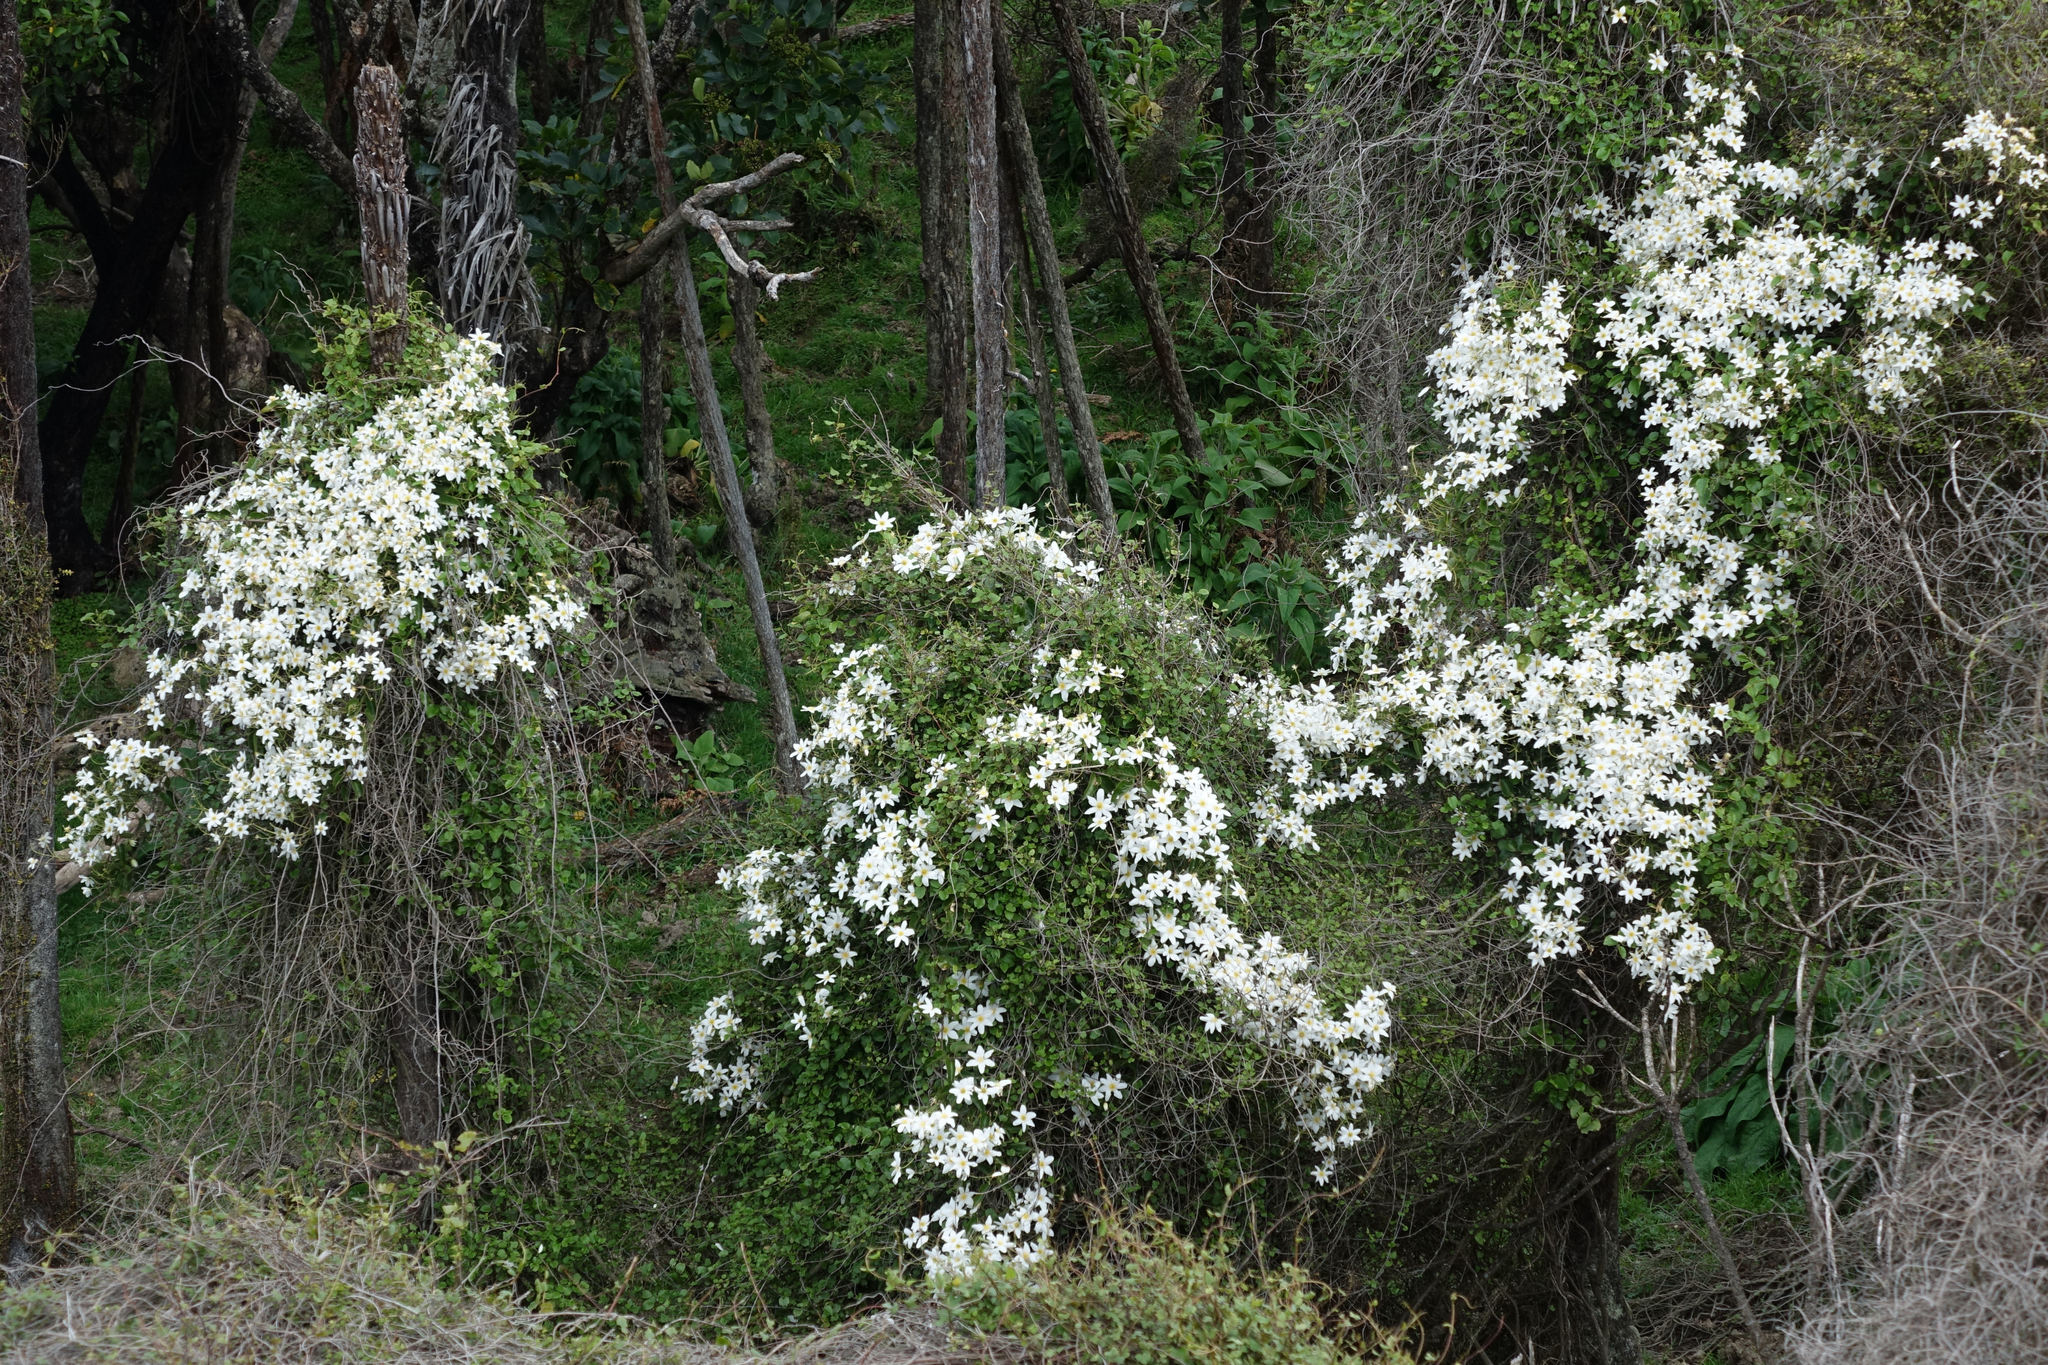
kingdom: Plantae
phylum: Tracheophyta
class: Magnoliopsida
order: Ranunculales
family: Ranunculaceae
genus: Clematis
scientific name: Clematis paniculata
